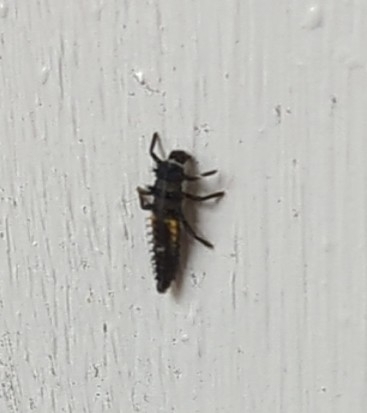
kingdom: Animalia
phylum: Arthropoda
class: Insecta
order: Coleoptera
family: Coccinellidae
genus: Harmonia
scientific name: Harmonia axyridis
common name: Harlequin ladybird
